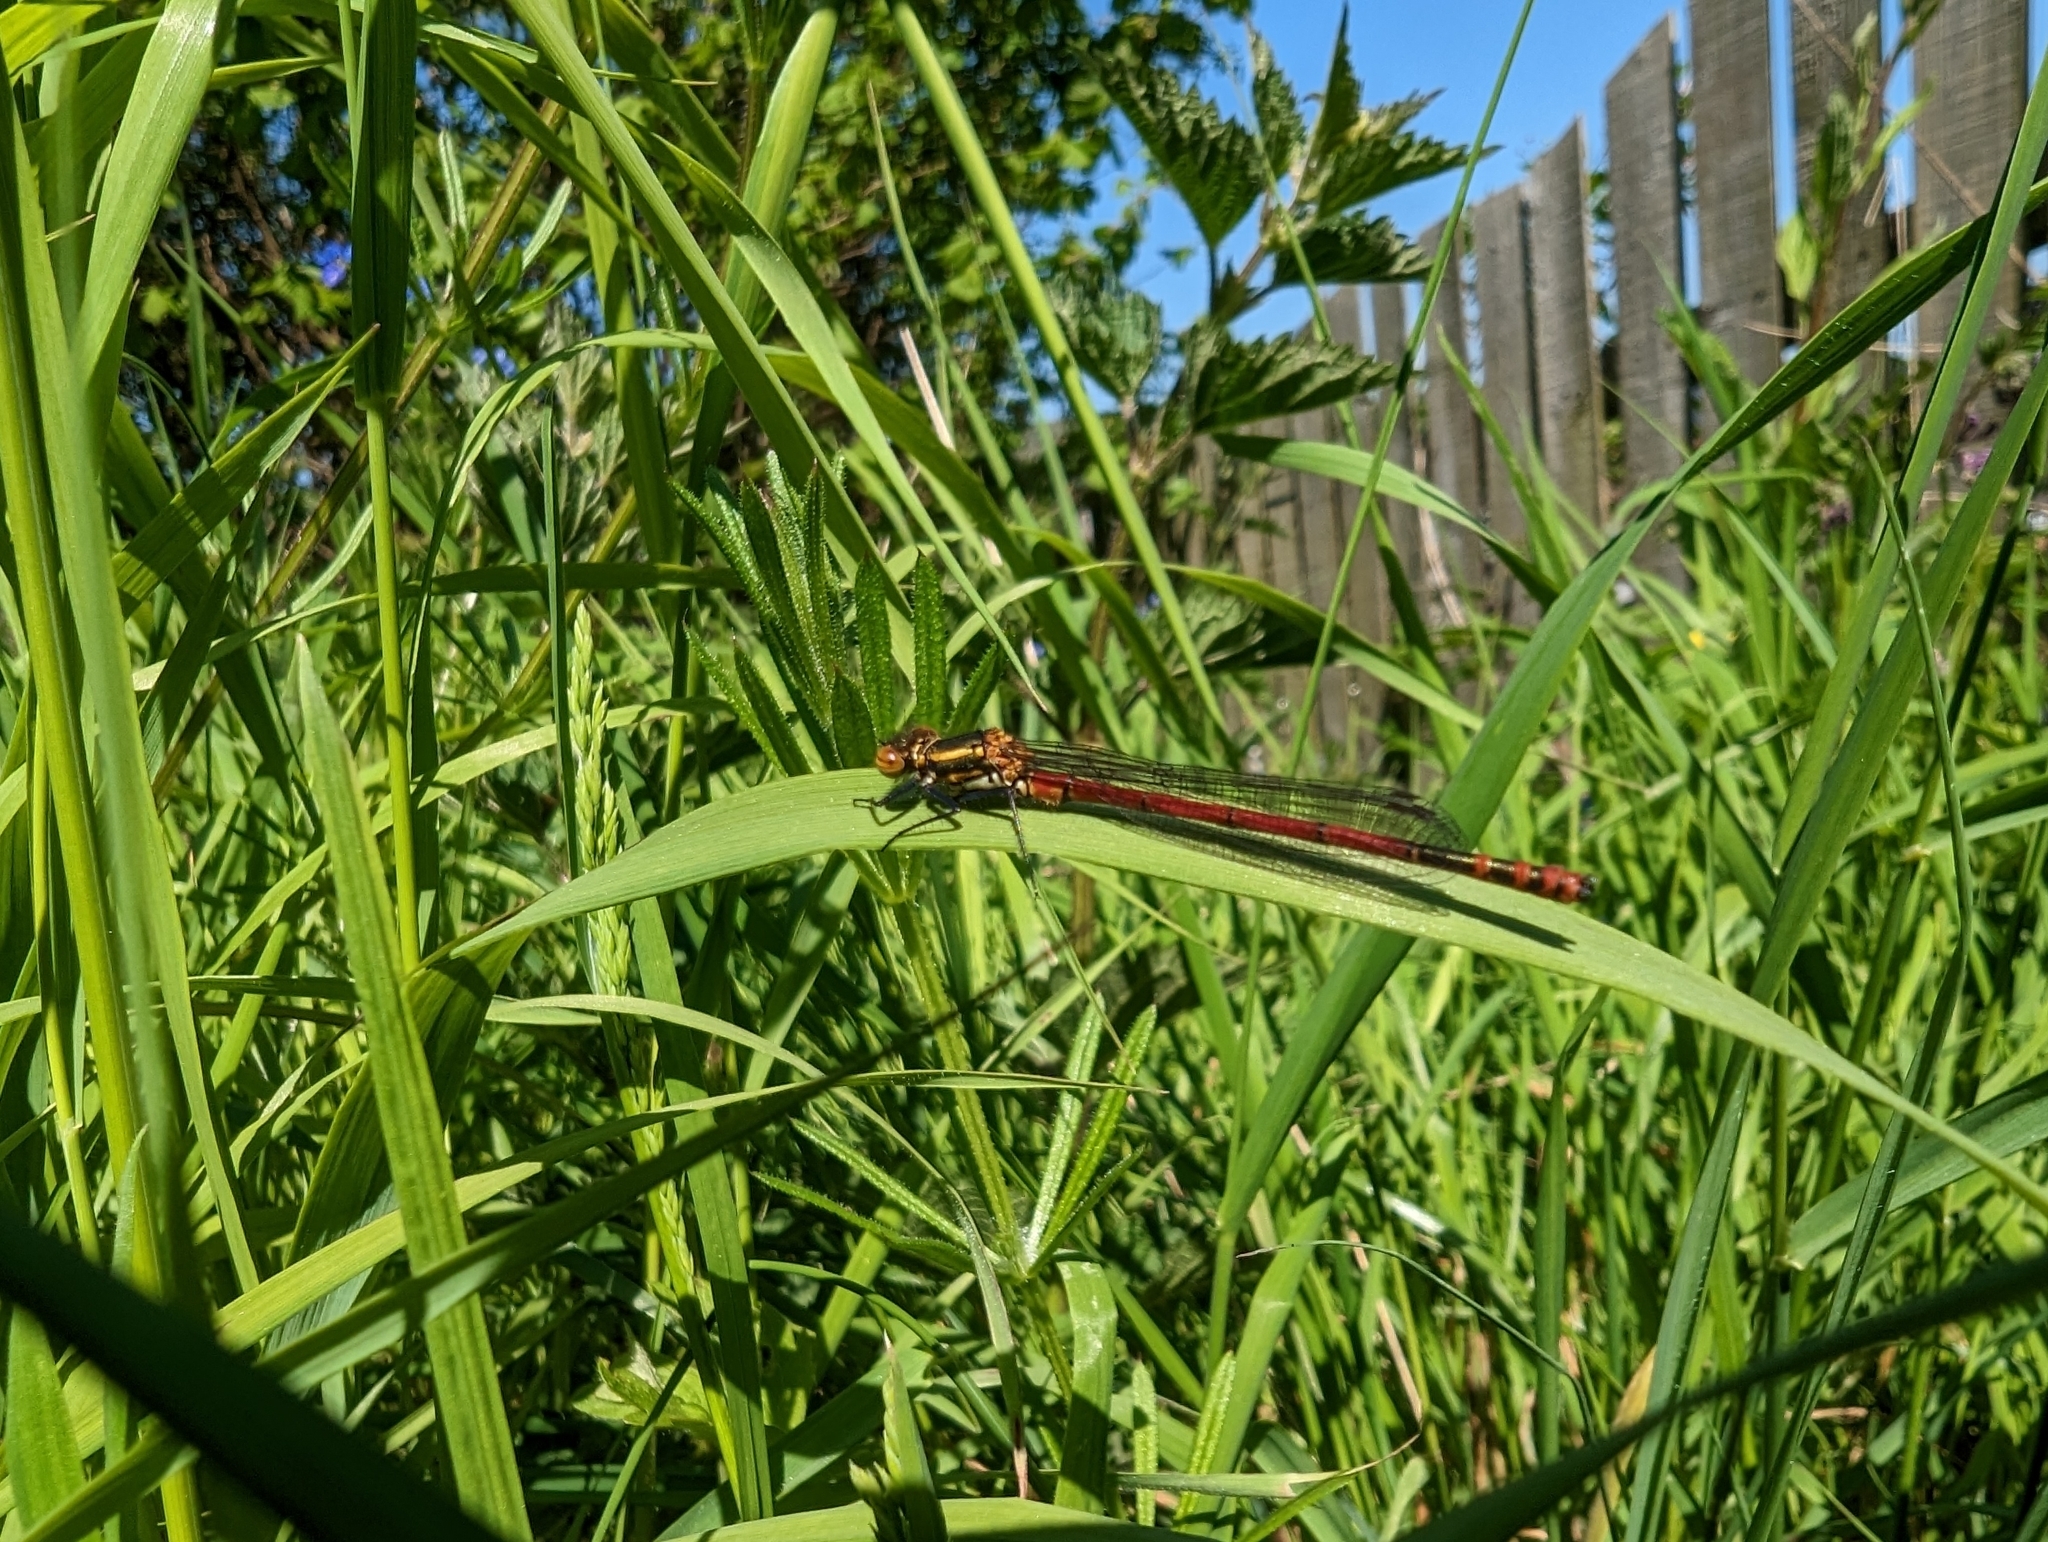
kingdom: Animalia
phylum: Arthropoda
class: Insecta
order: Odonata
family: Coenagrionidae
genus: Pyrrhosoma
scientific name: Pyrrhosoma nymphula
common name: Large red damsel
